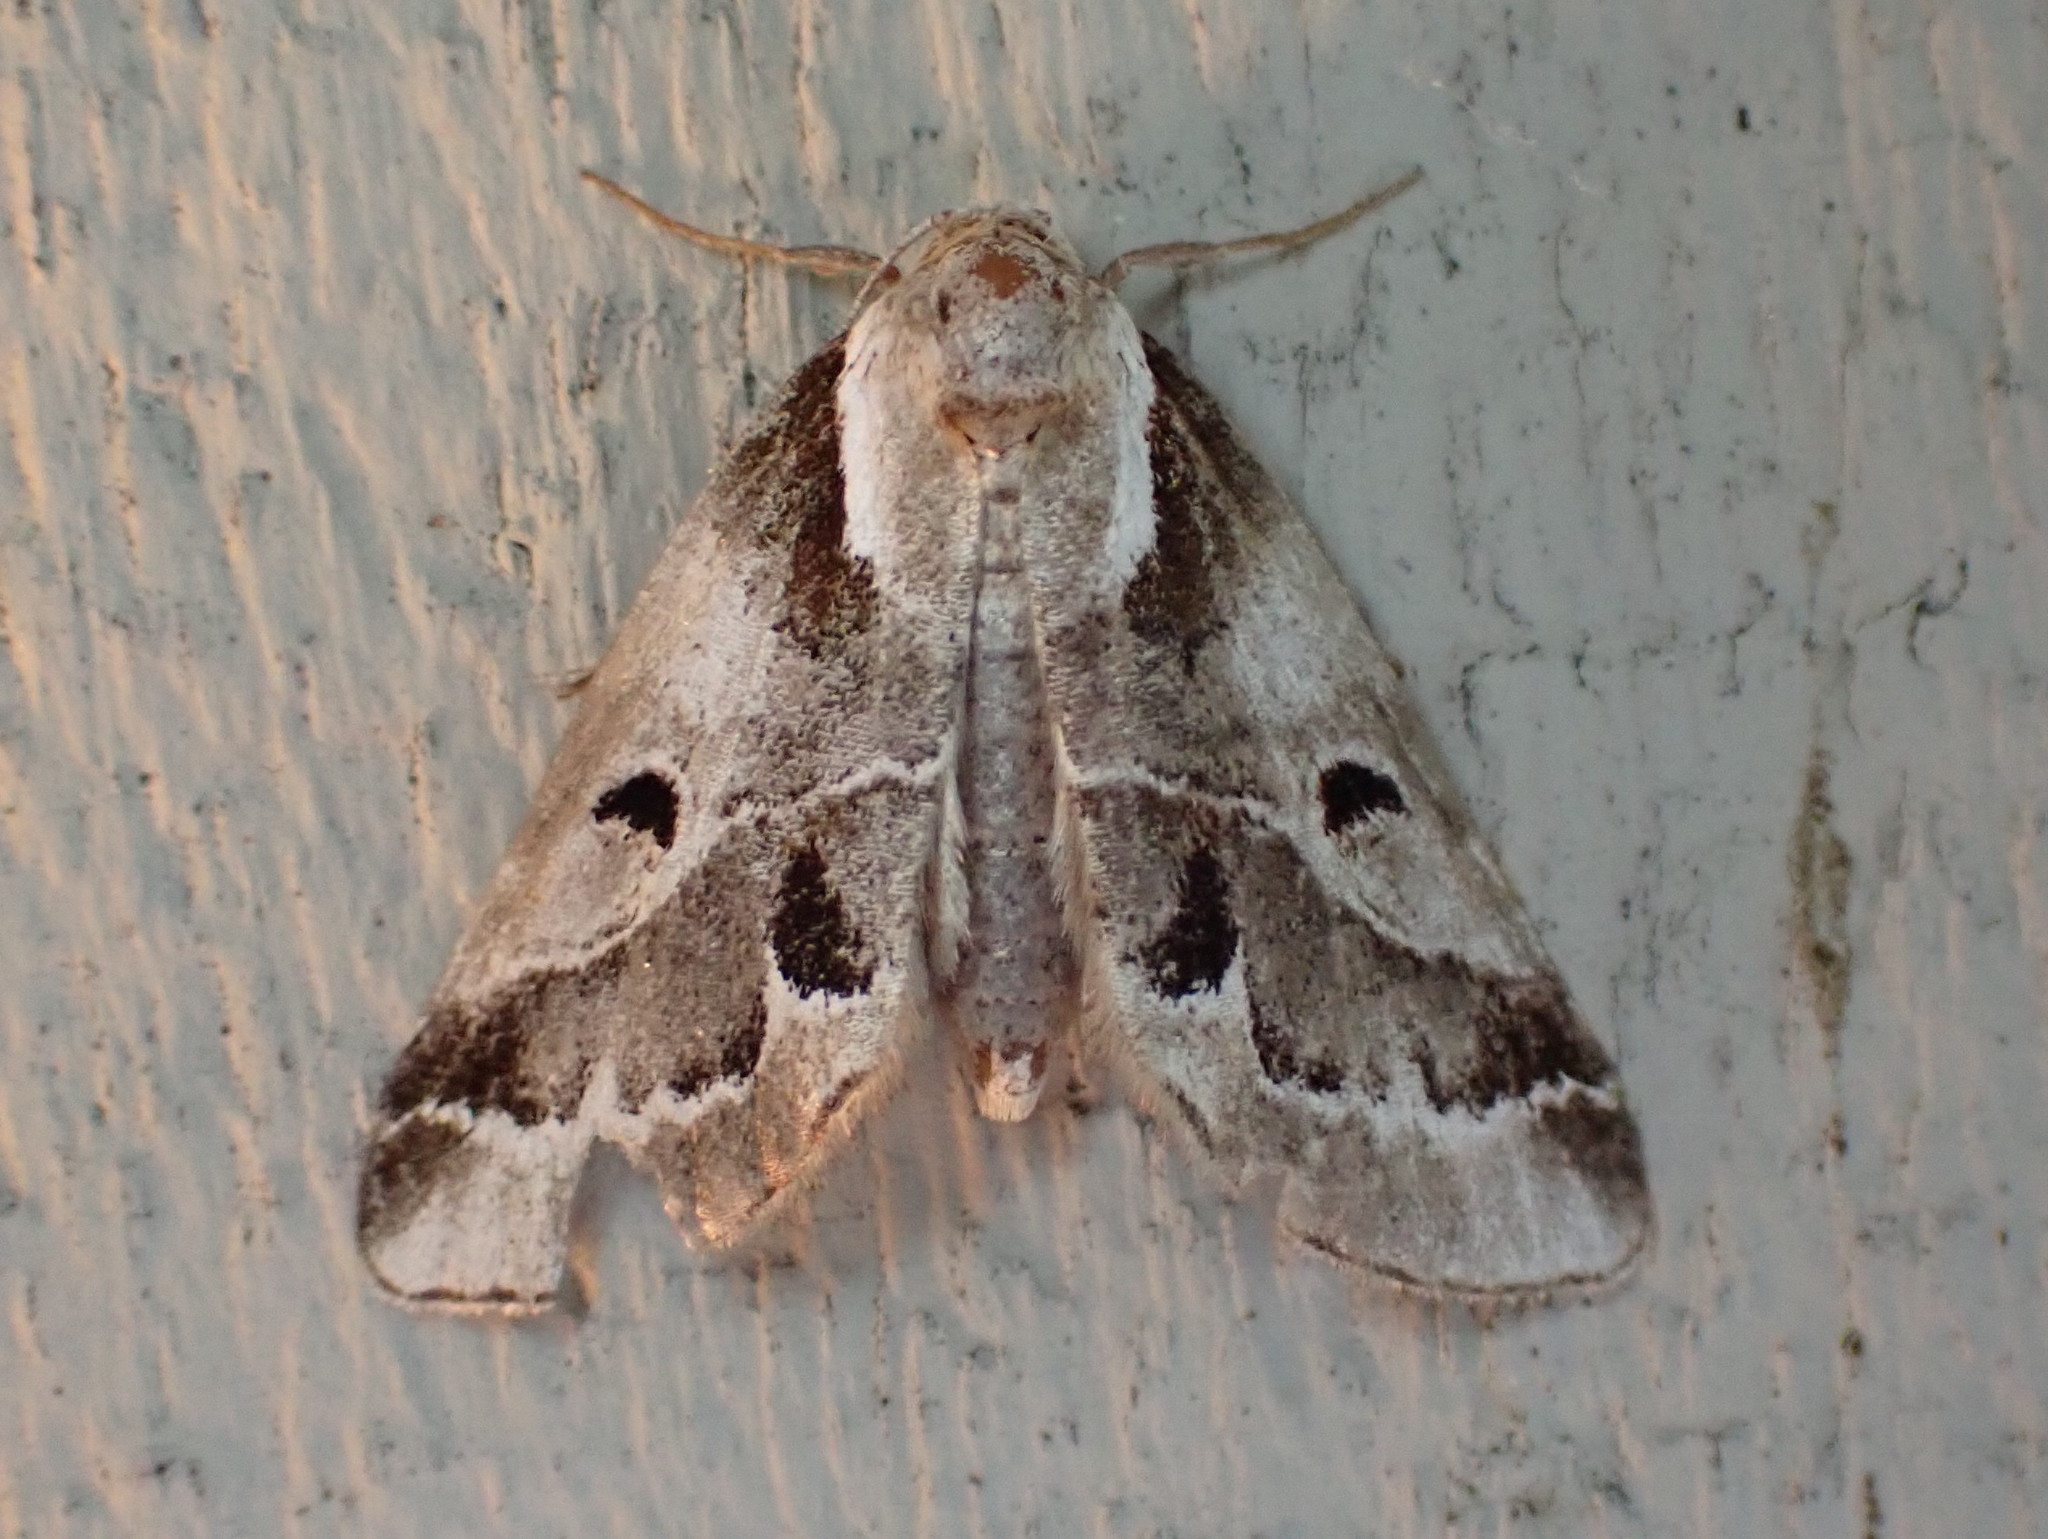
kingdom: Animalia
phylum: Arthropoda
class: Insecta
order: Lepidoptera
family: Nolidae
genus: Baileya
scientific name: Baileya doubledayi
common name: Doubleday's baileya moth
